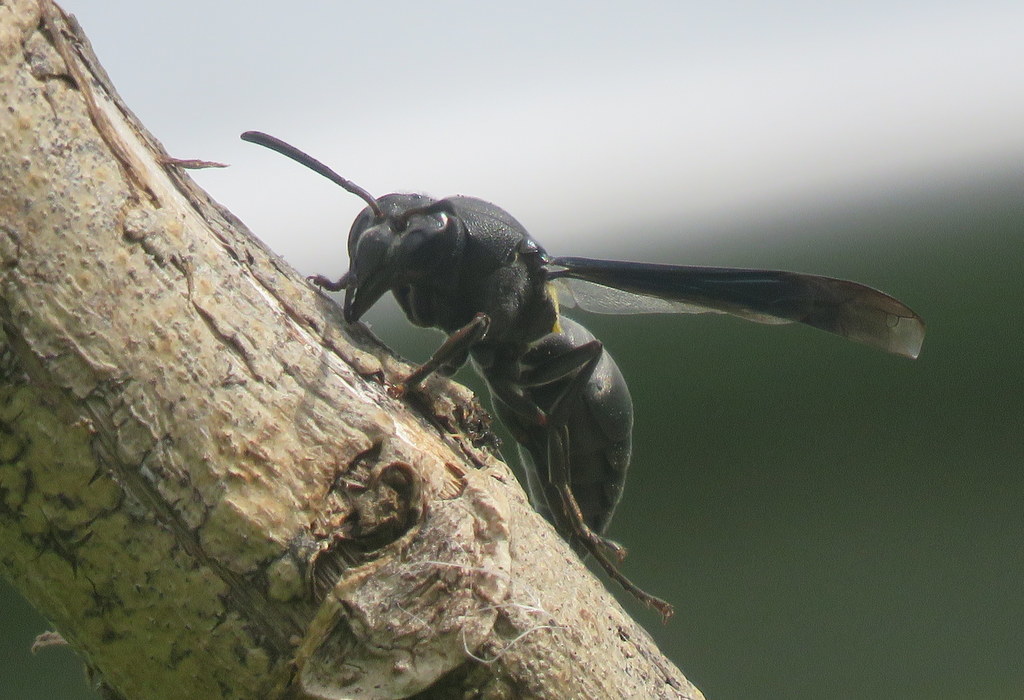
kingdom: Animalia
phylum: Arthropoda
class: Insecta
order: Hymenoptera
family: Eumenidae
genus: Monobia
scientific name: Monobia angulosa
